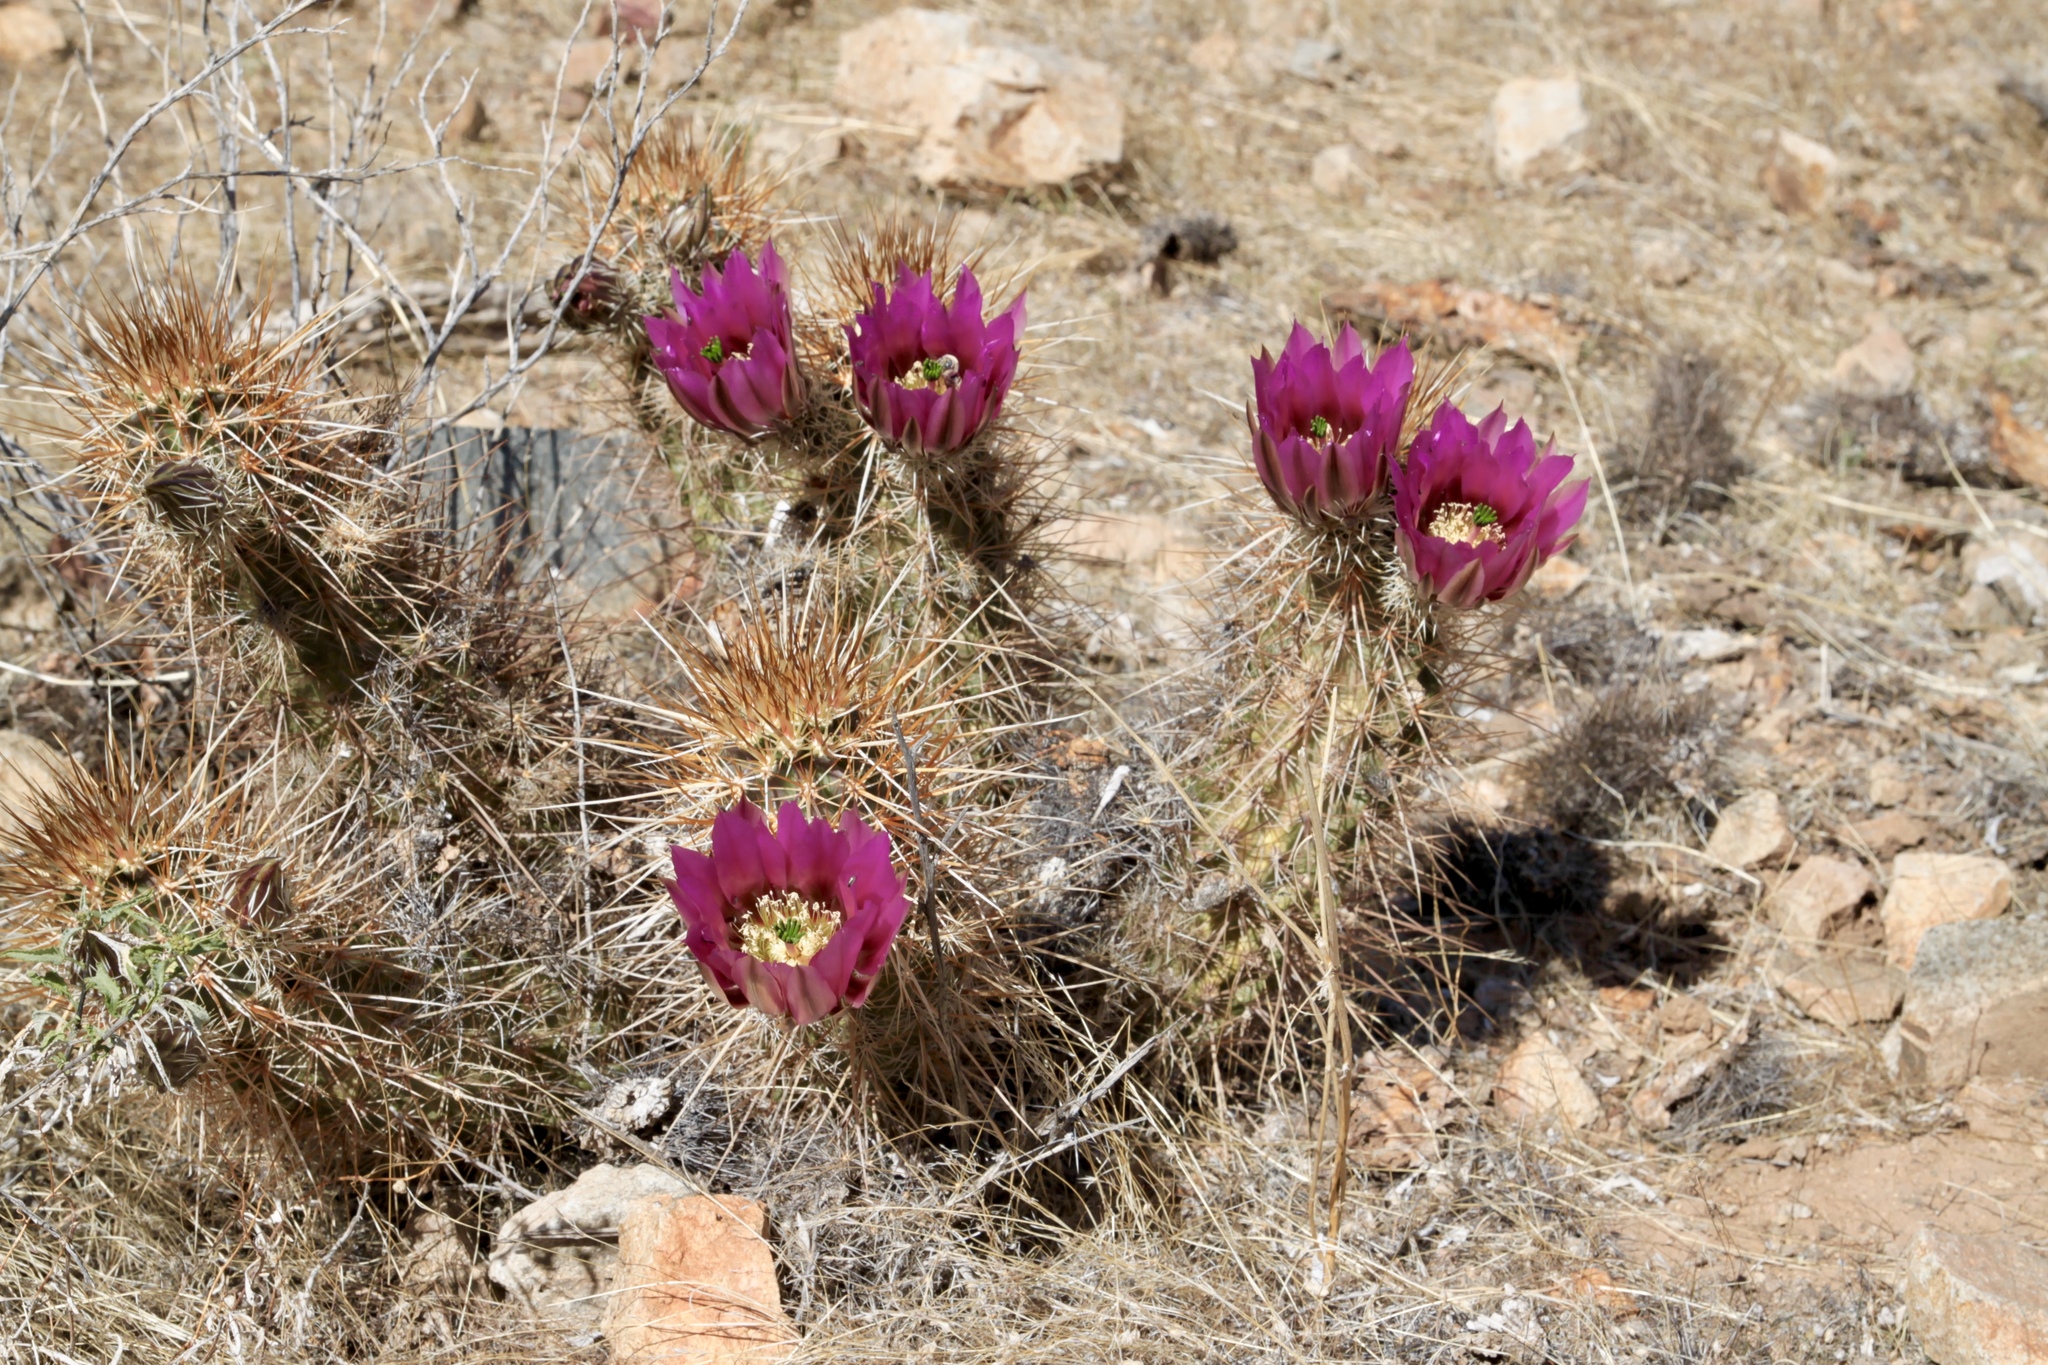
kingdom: Plantae
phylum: Tracheophyta
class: Magnoliopsida
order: Caryophyllales
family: Cactaceae
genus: Echinocereus
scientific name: Echinocereus engelmannii
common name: Engelmann's hedgehog cactus
